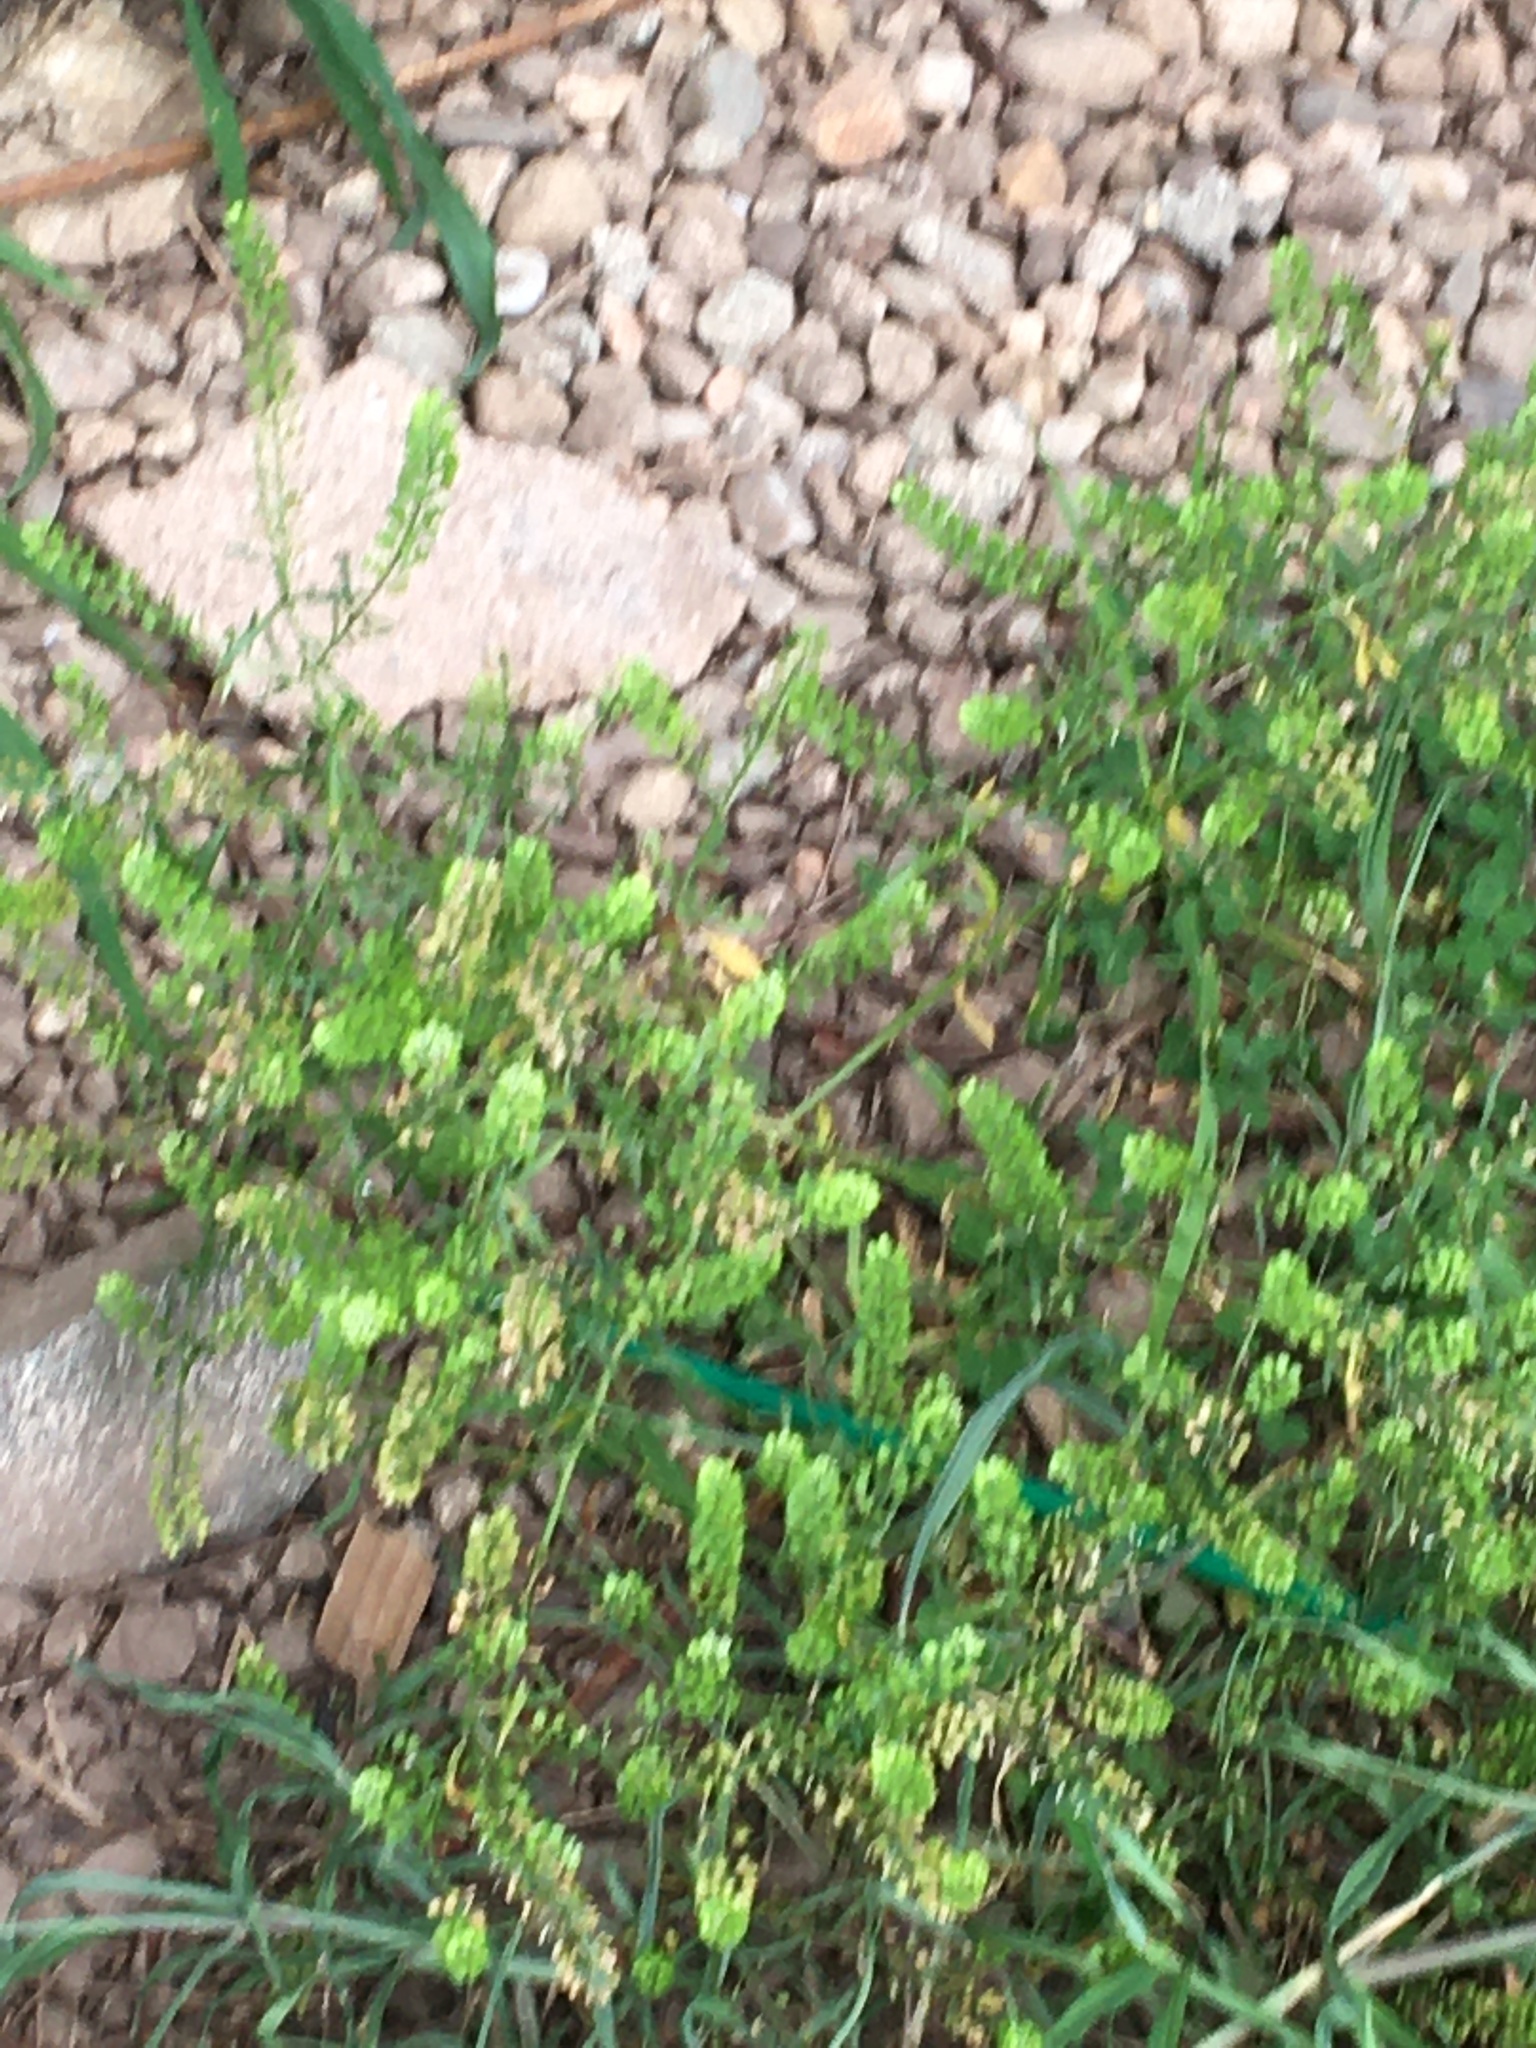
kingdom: Plantae
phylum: Tracheophyta
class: Magnoliopsida
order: Brassicales
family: Brassicaceae
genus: Lepidium
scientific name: Lepidium virginicum
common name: Least pepperwort
